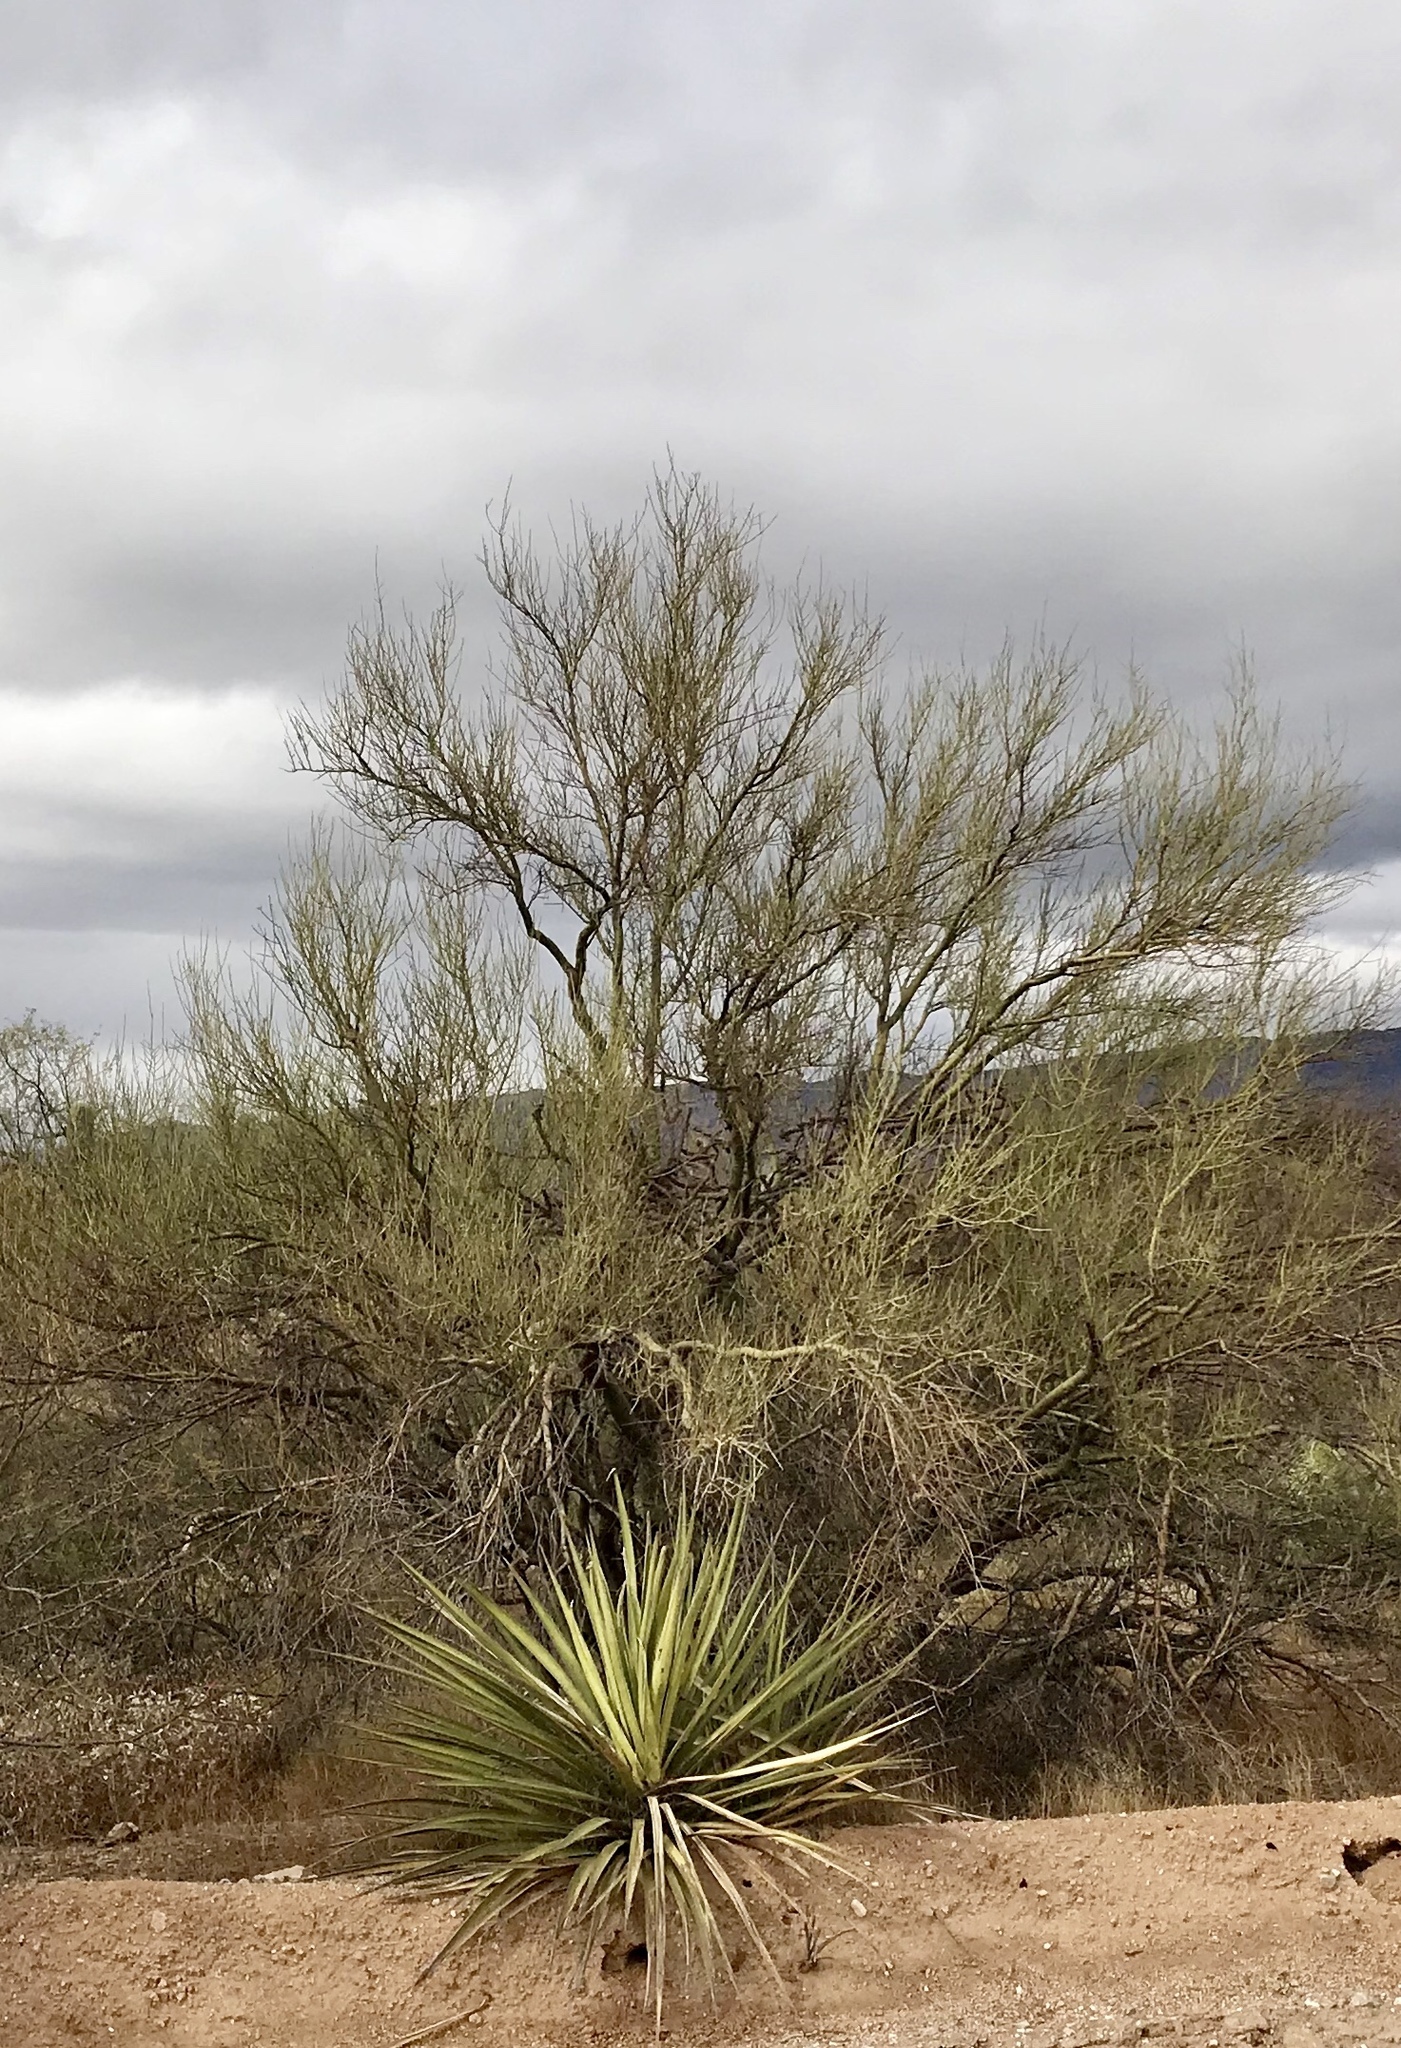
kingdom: Plantae
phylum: Tracheophyta
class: Magnoliopsida
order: Fabales
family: Fabaceae
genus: Parkinsonia
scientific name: Parkinsonia microphylla
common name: Yellow paloverde
